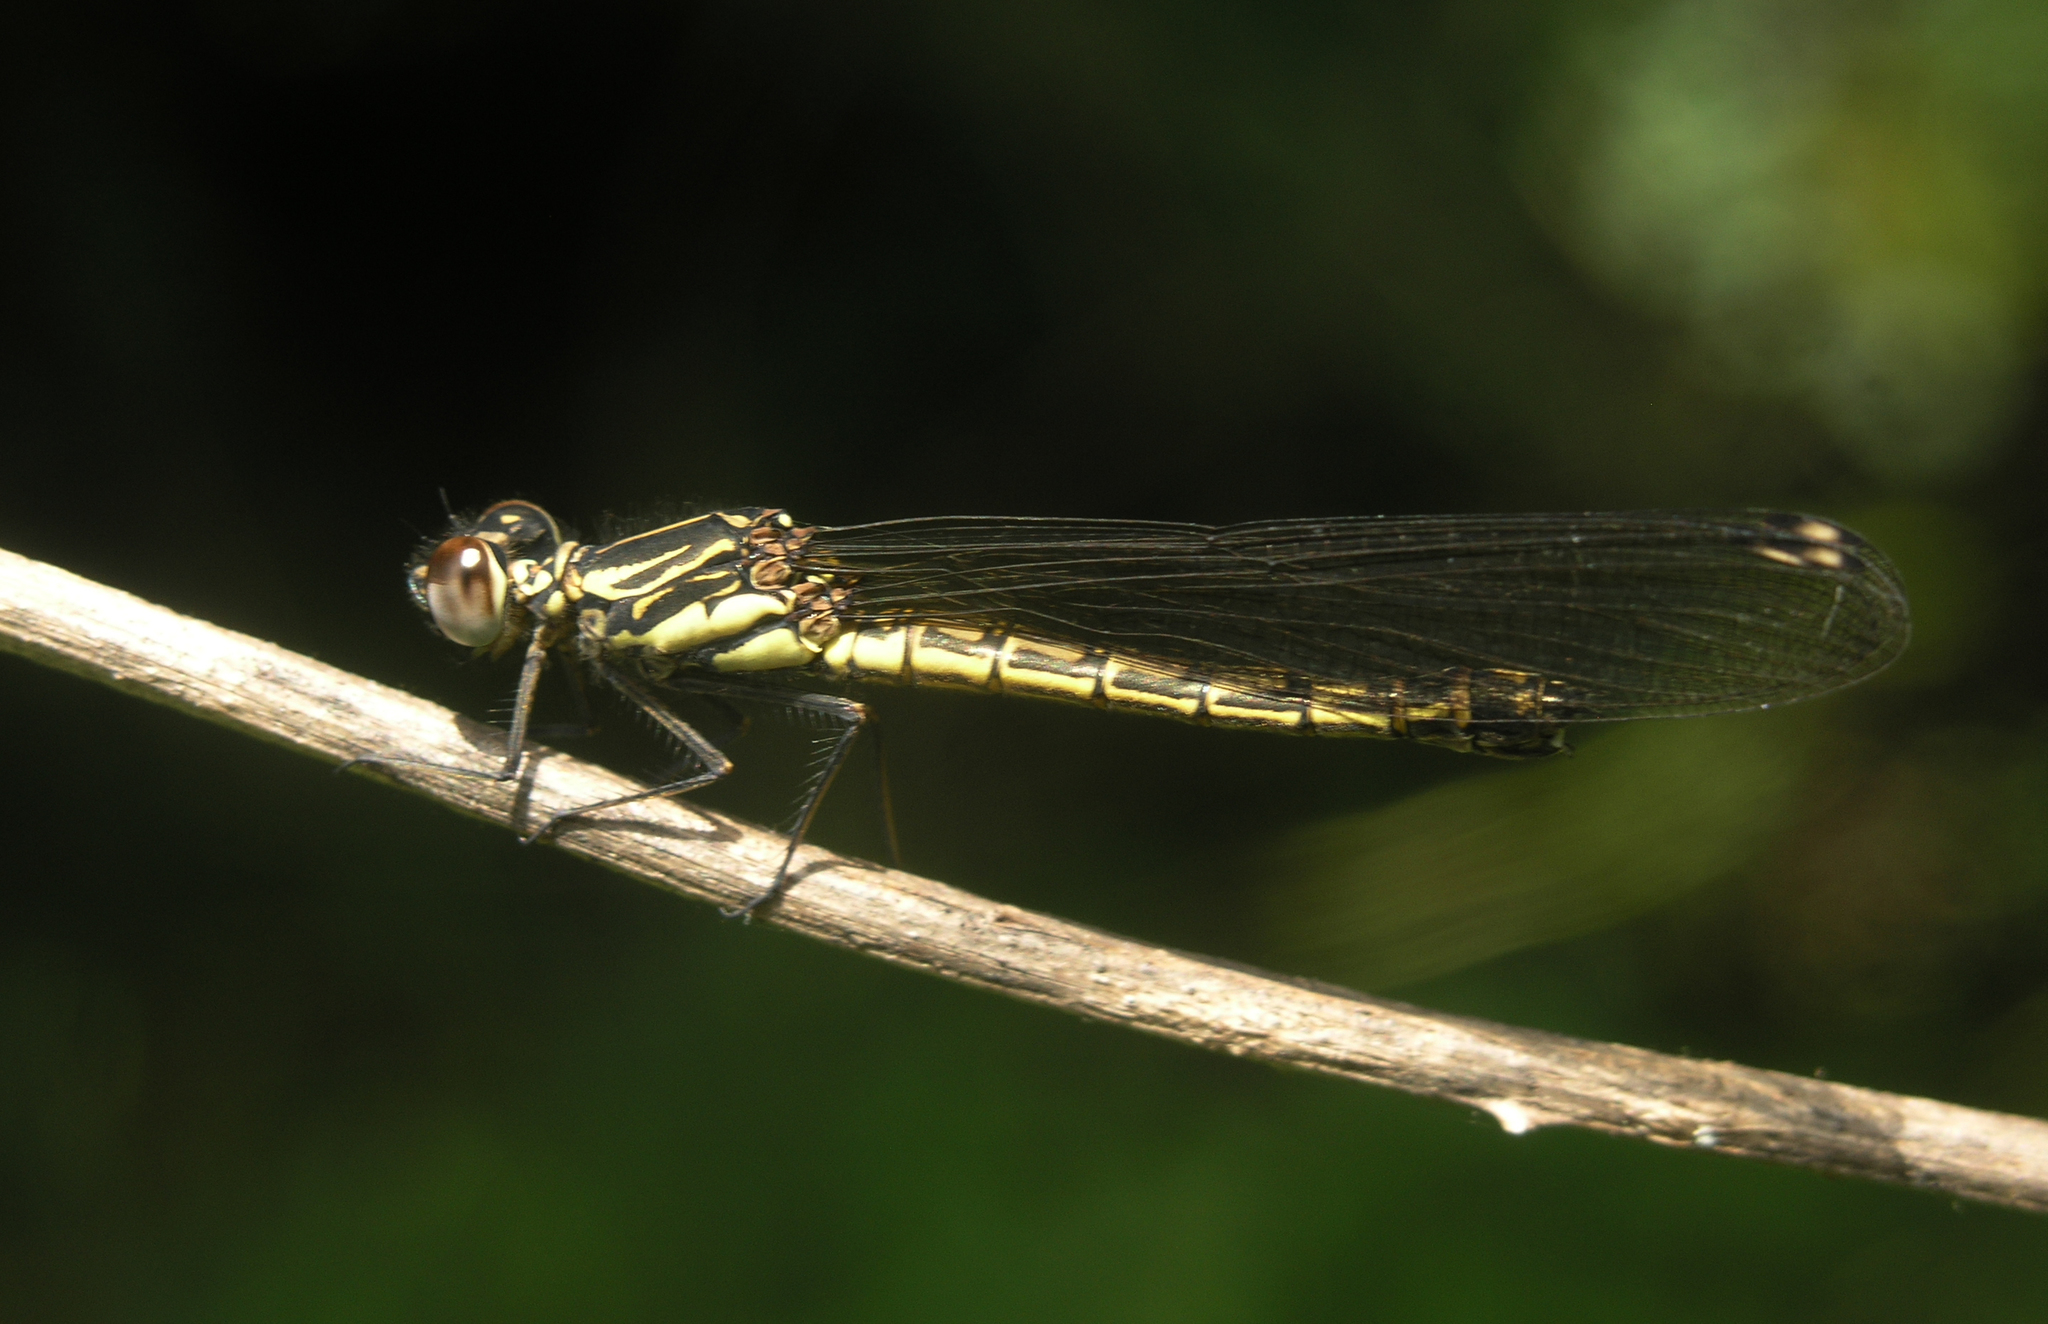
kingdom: Animalia
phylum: Arthropoda
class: Insecta
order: Odonata
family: Chlorocyphidae
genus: Platycypha
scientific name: Platycypha caligata
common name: Dancing jewel
